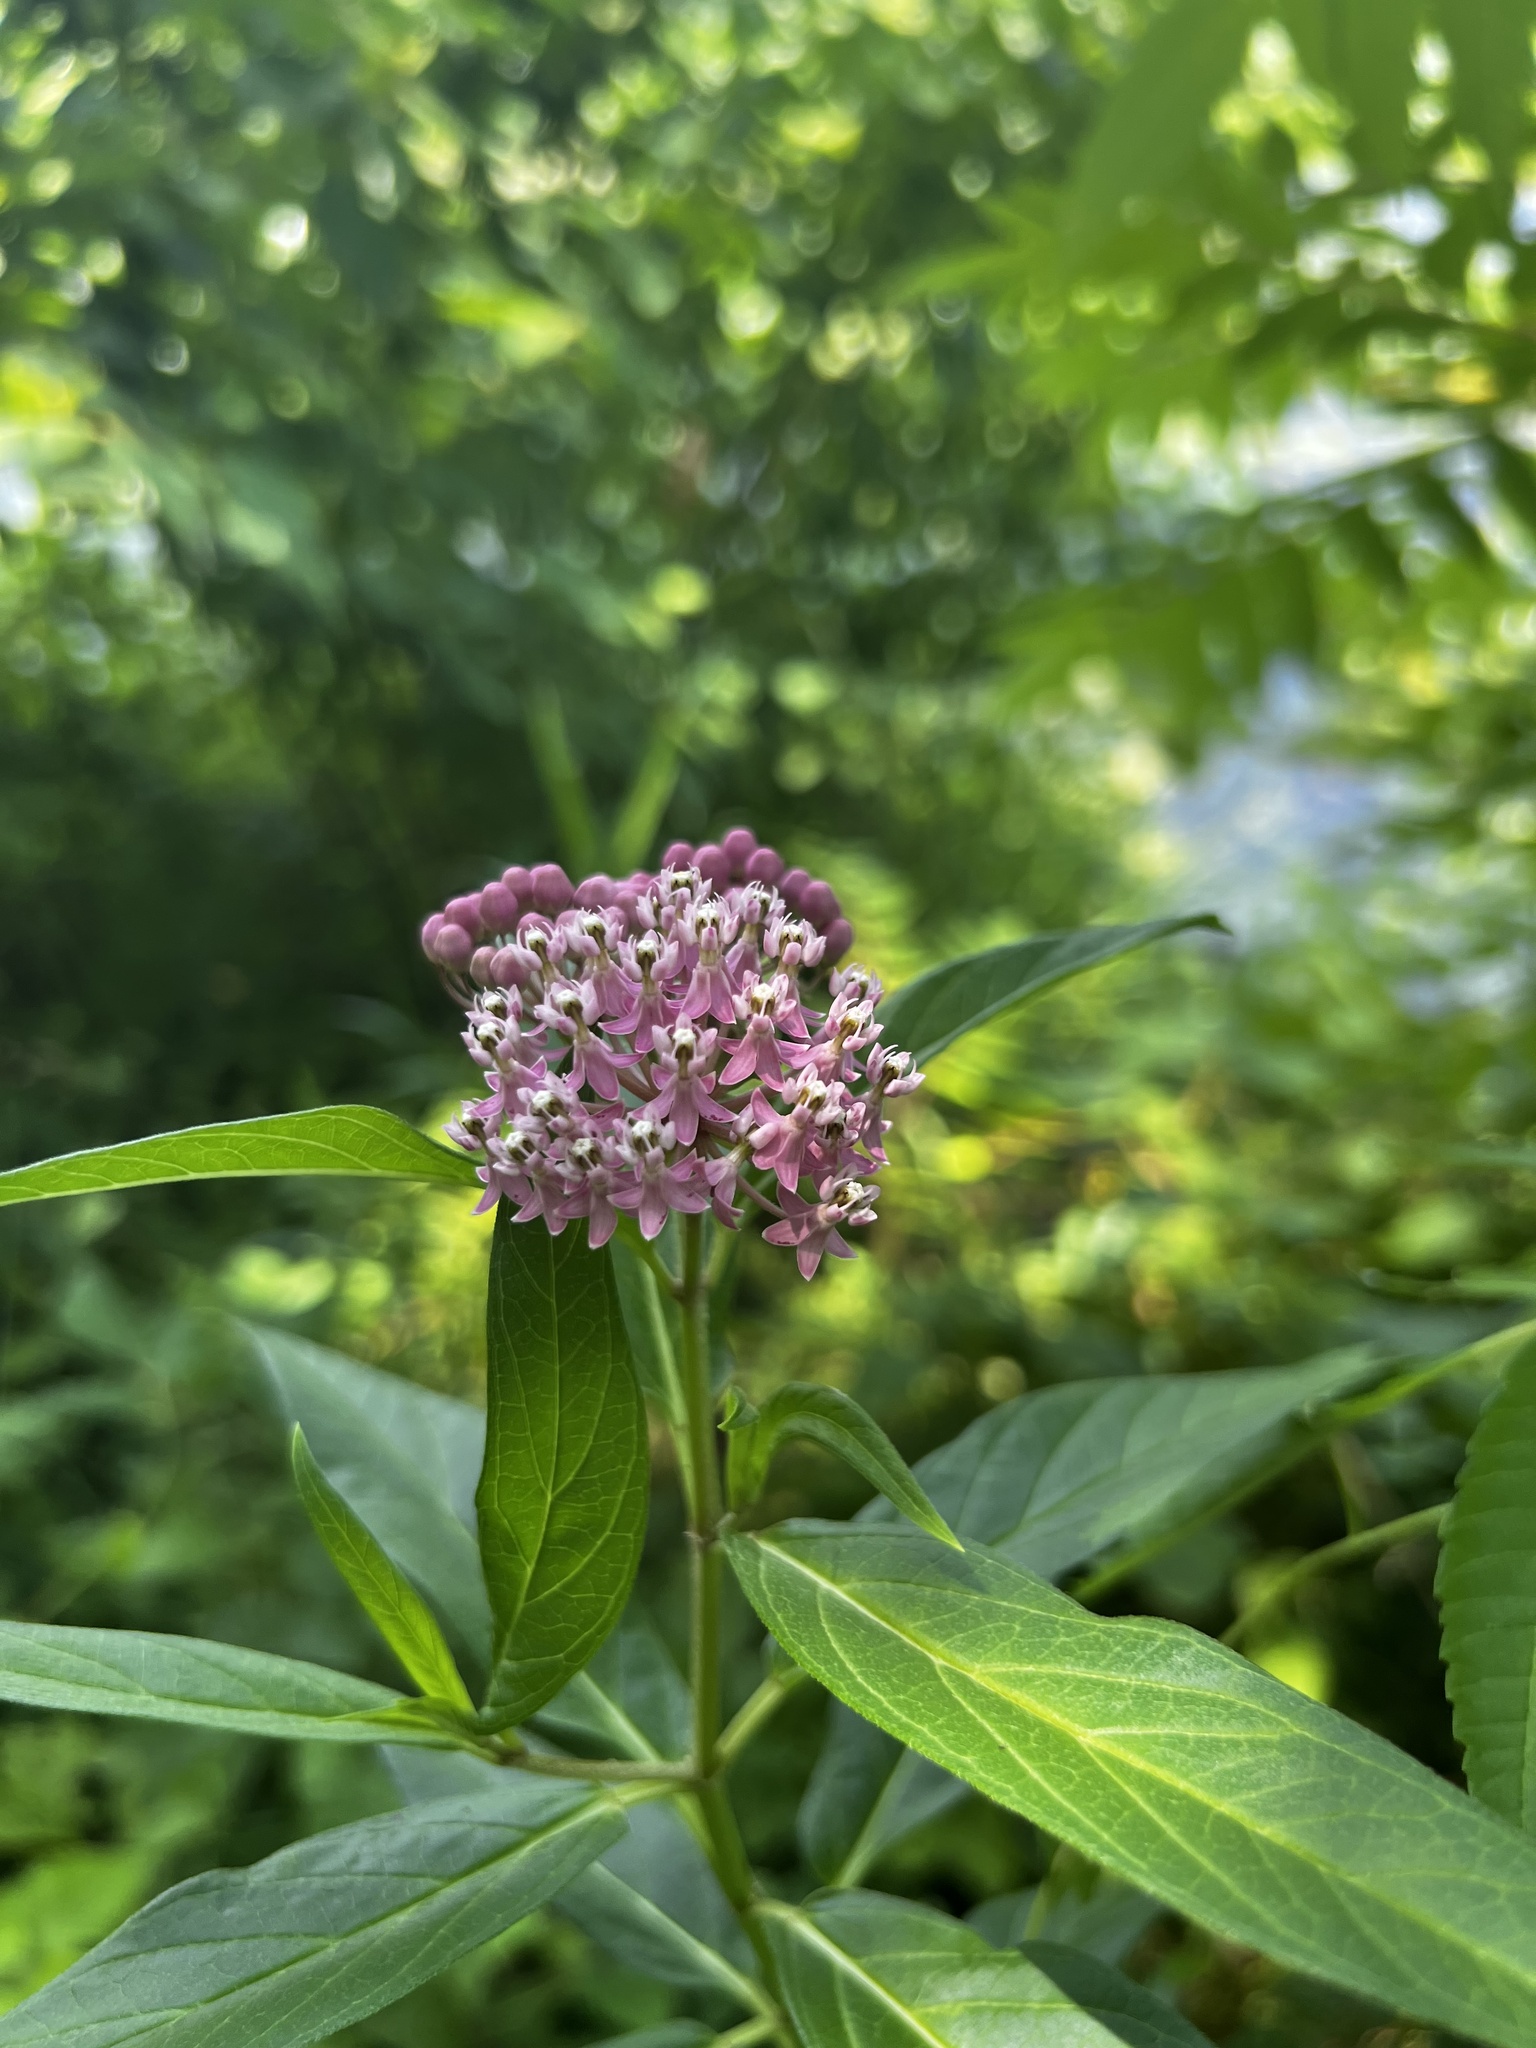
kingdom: Plantae
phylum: Tracheophyta
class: Magnoliopsida
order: Gentianales
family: Apocynaceae
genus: Asclepias
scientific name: Asclepias incarnata
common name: Swamp milkweed
